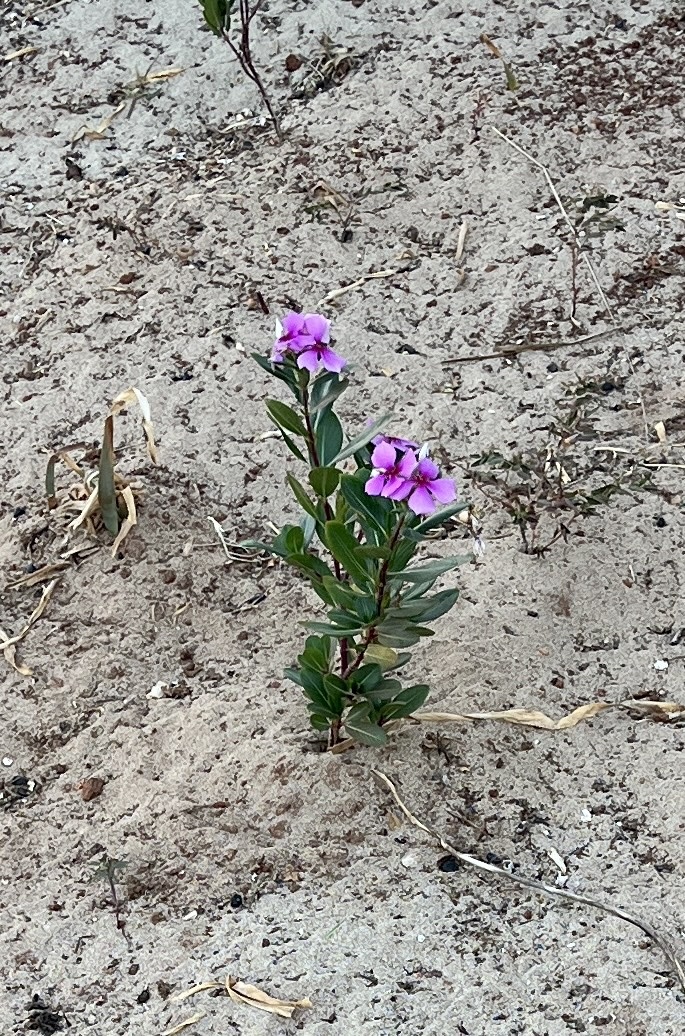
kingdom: Plantae
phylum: Tracheophyta
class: Magnoliopsida
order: Gentianales
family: Apocynaceae
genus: Catharanthus
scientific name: Catharanthus roseus
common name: Madagascar periwinkle
